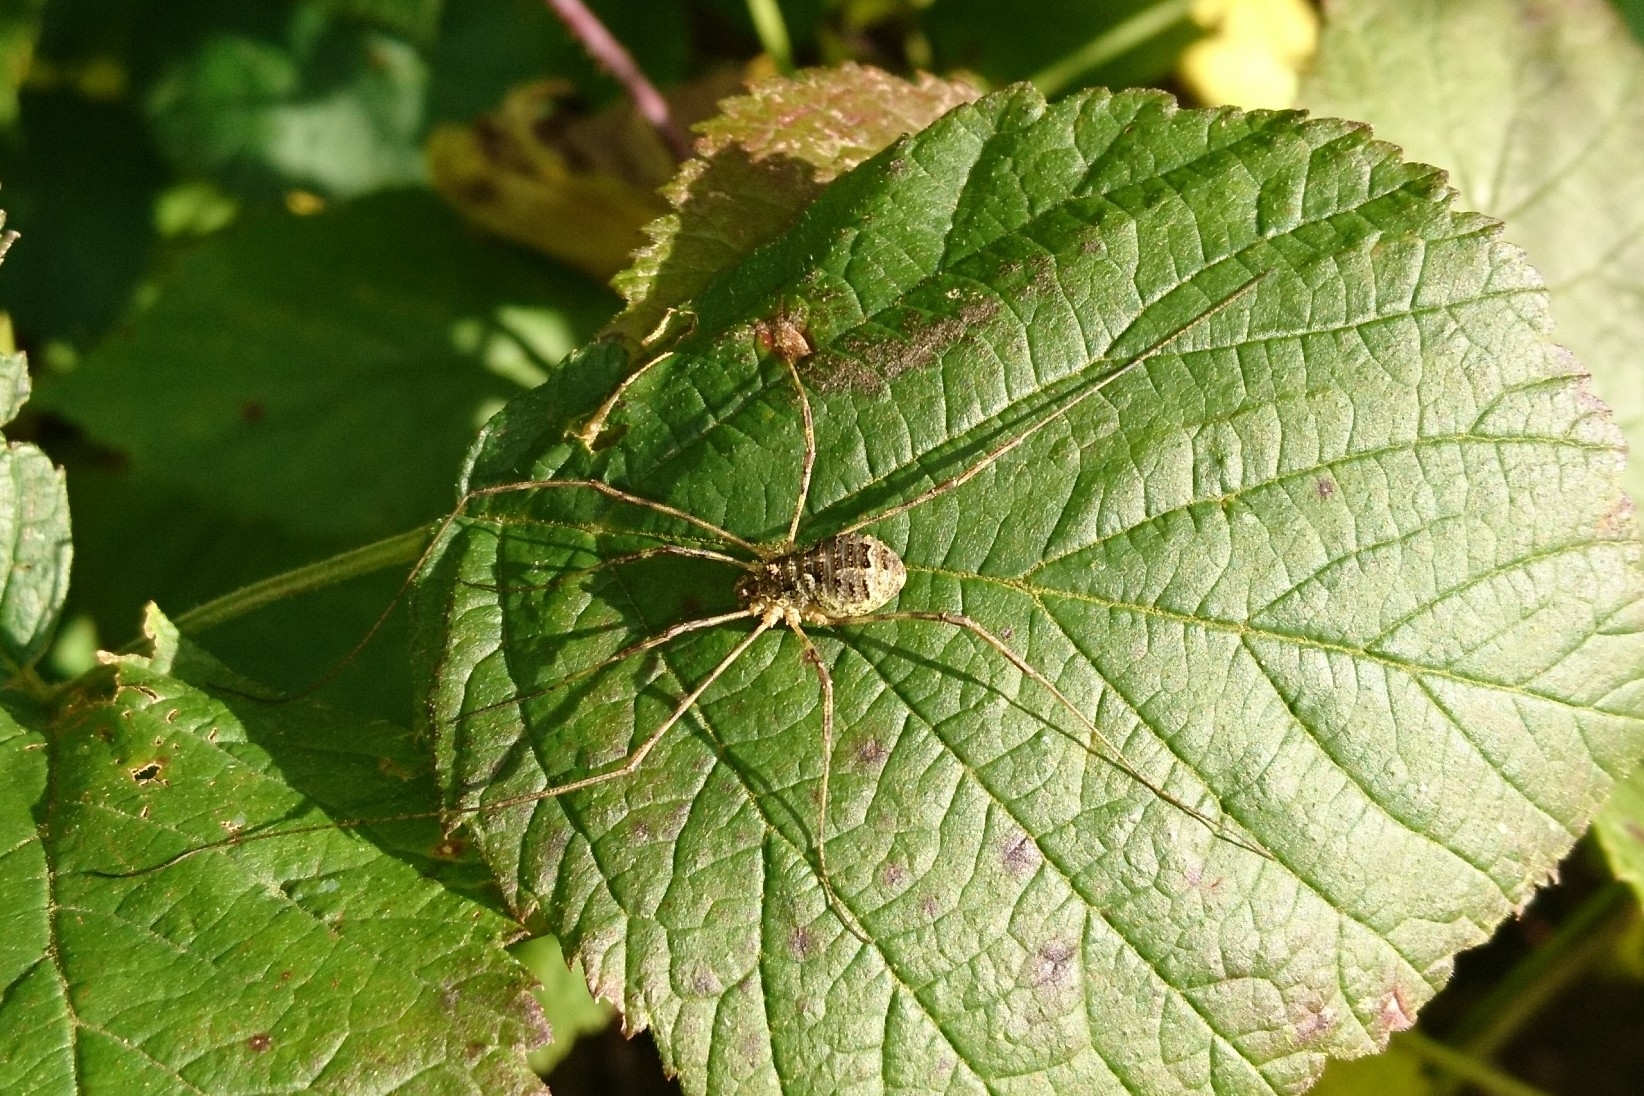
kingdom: Animalia
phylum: Arthropoda
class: Arachnida
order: Opiliones
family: Phalangiidae
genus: Lacinius
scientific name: Lacinius dentiger
